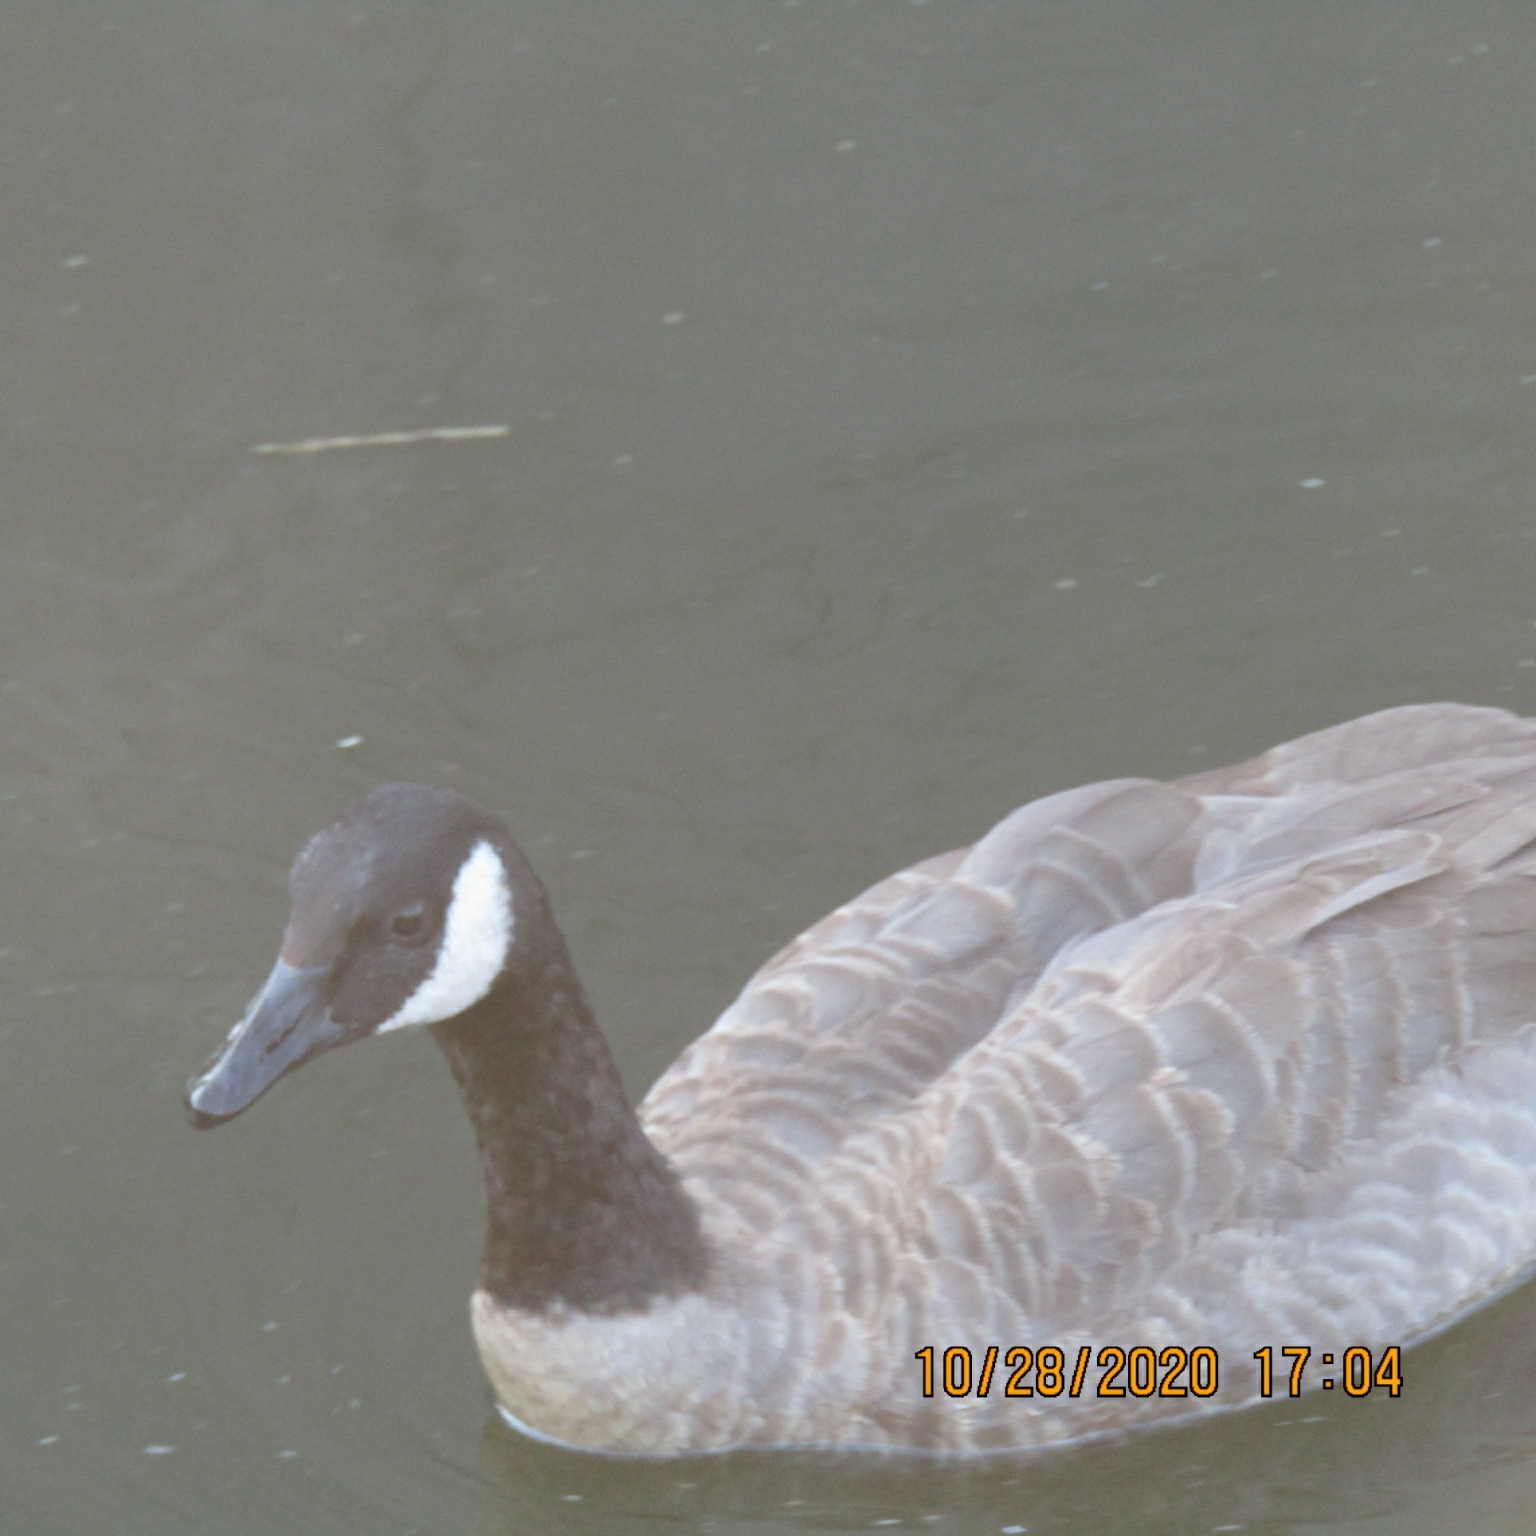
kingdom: Animalia
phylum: Chordata
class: Aves
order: Anseriformes
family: Anatidae
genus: Branta
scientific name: Branta canadensis
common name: Canada goose
